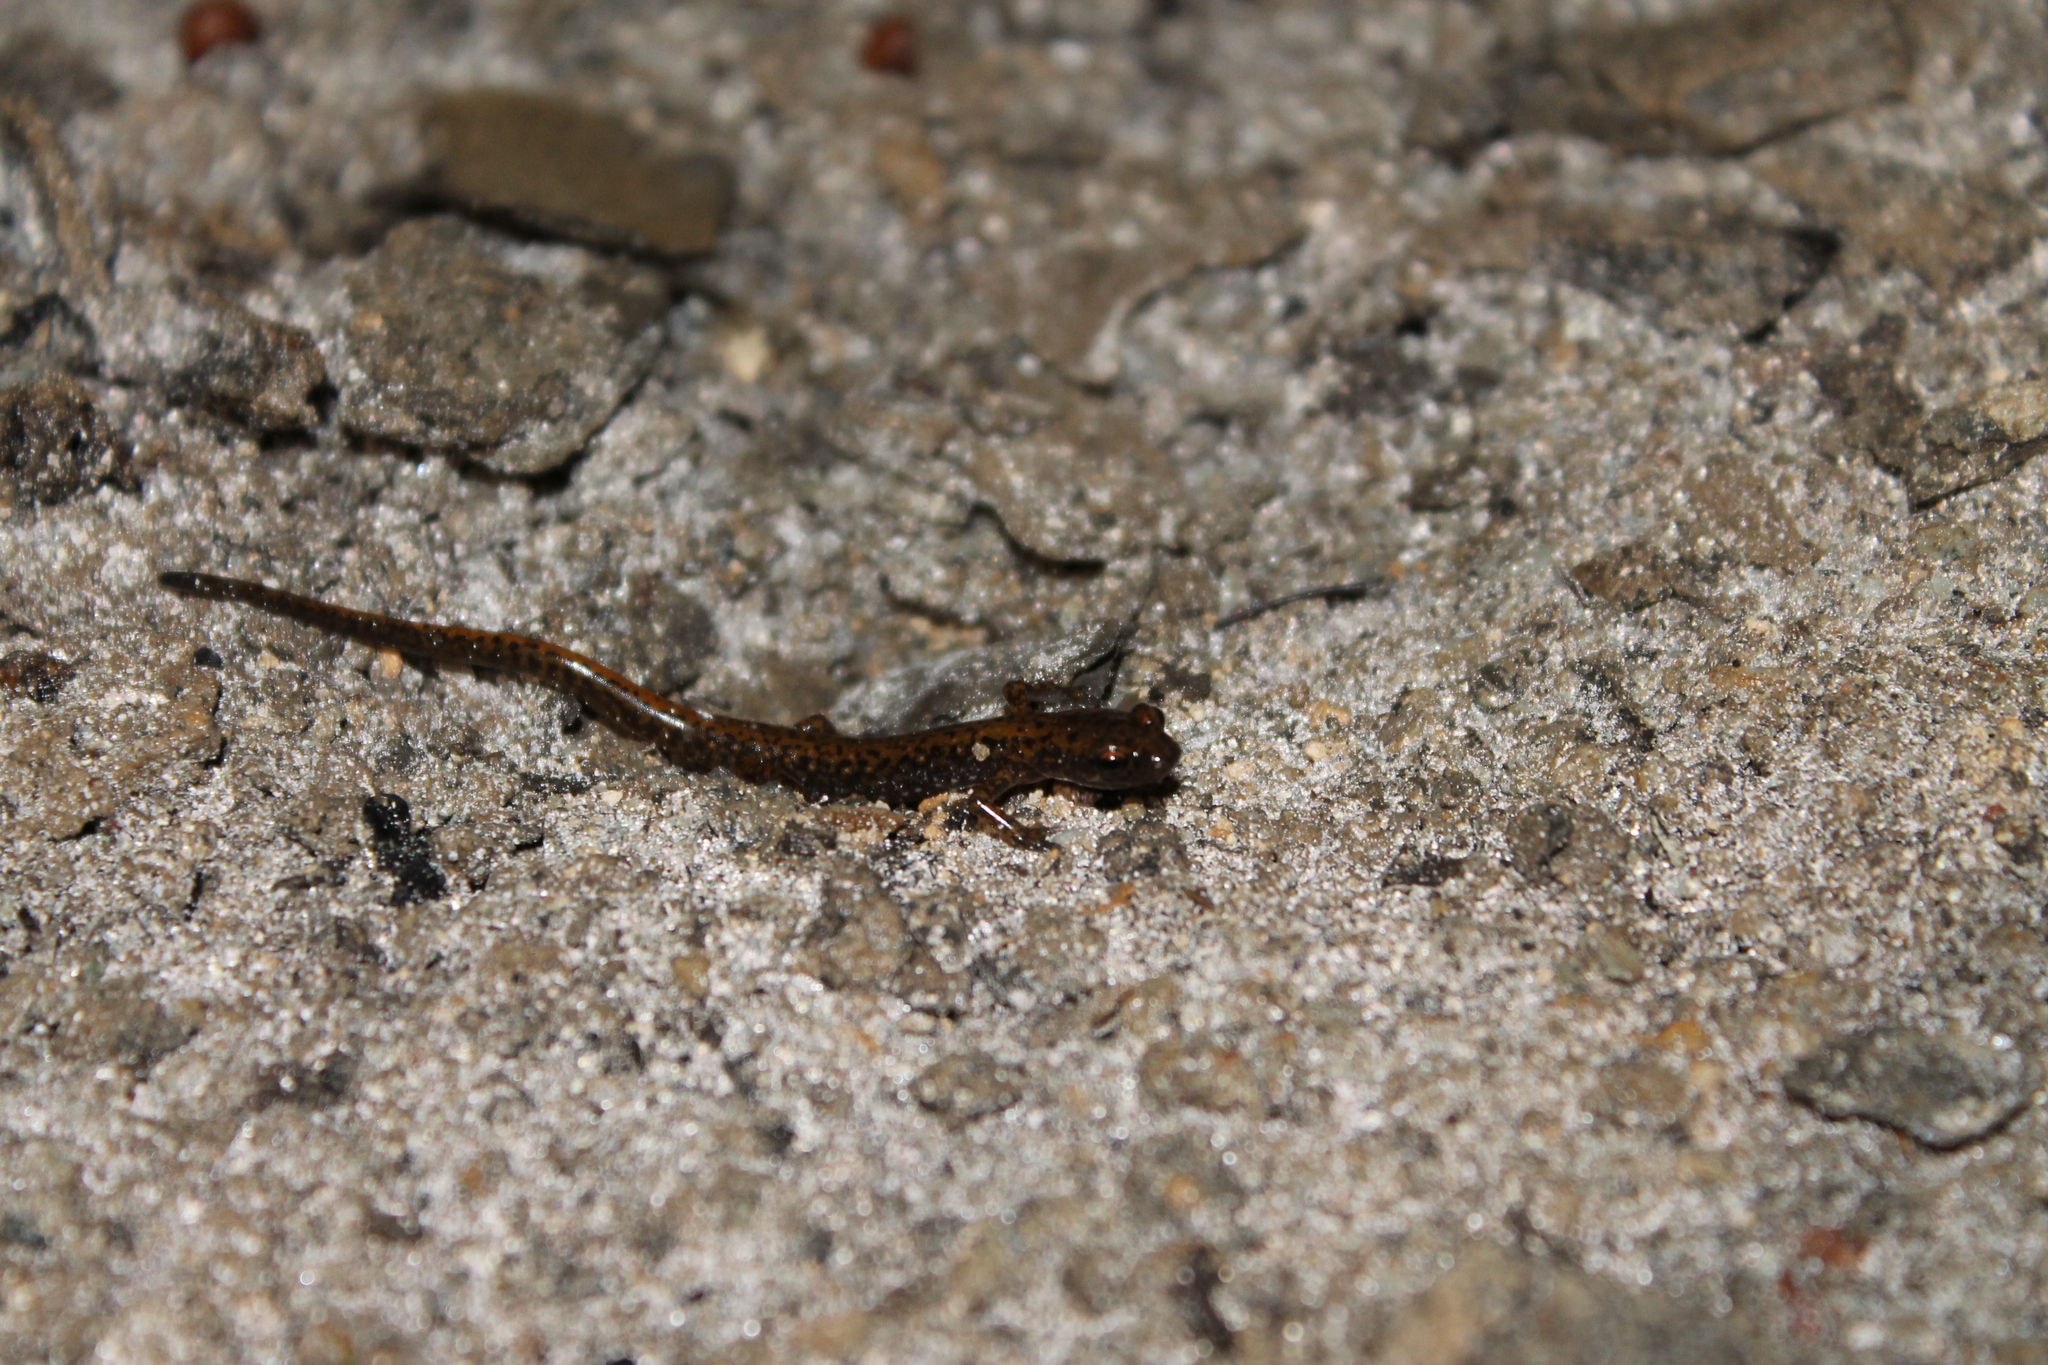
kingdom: Animalia
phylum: Chordata
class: Amphibia
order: Caudata
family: Plethodontidae
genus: Eurycea
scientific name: Eurycea lucifuga
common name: Cave salamander
